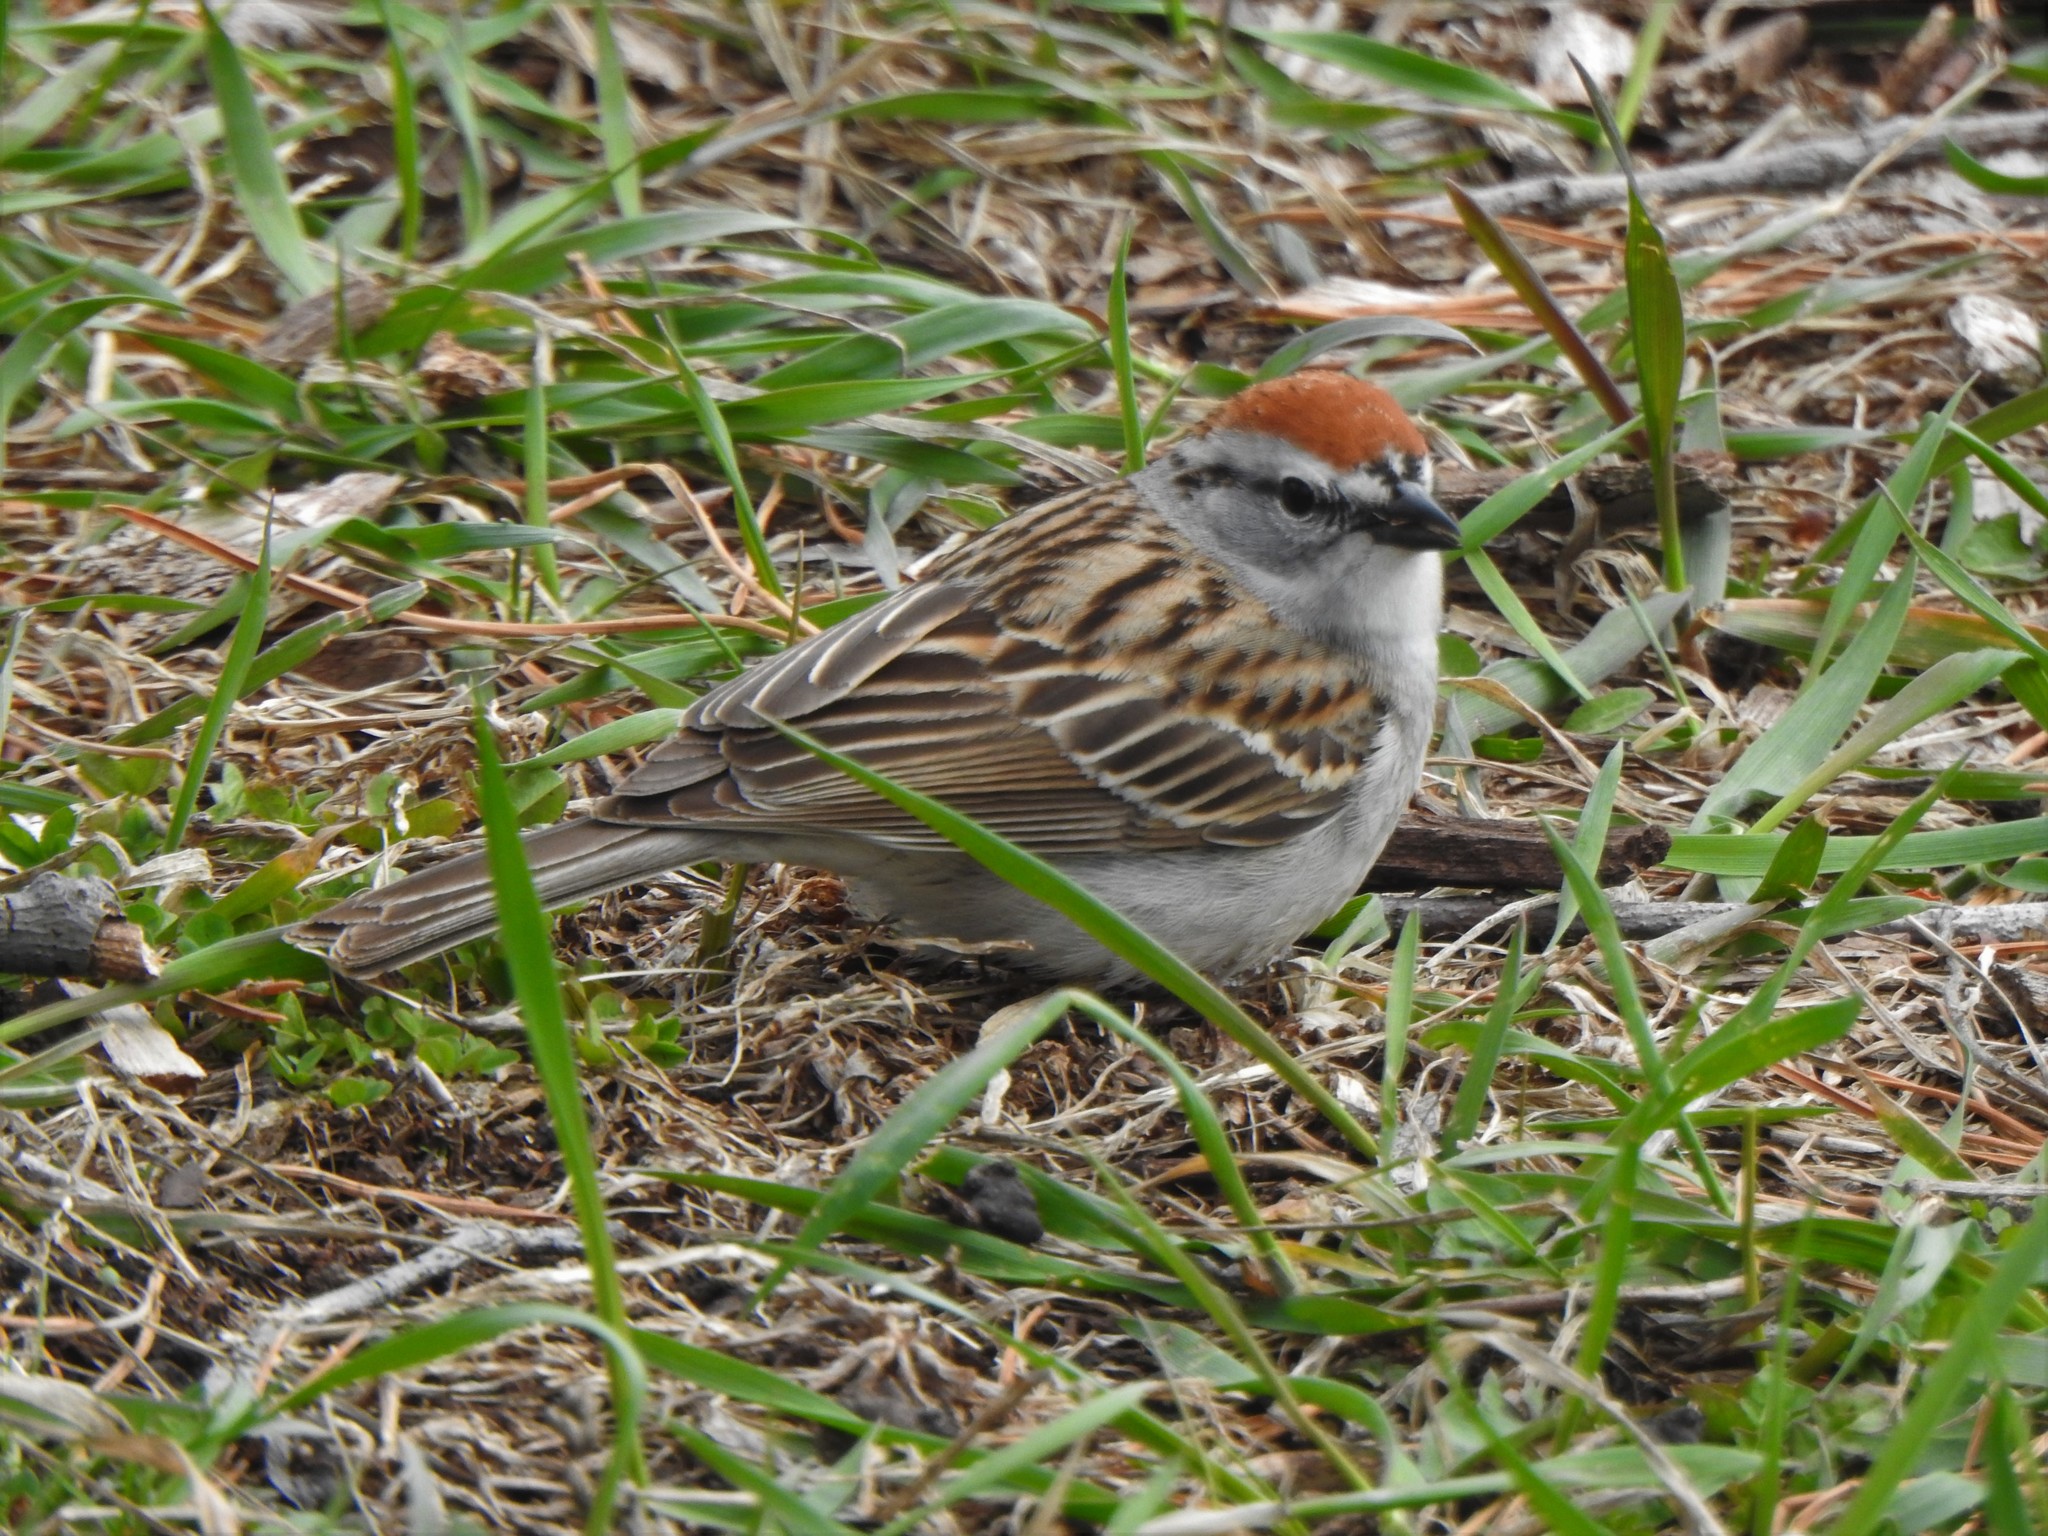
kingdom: Animalia
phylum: Chordata
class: Aves
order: Passeriformes
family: Passerellidae
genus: Spizella
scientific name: Spizella passerina
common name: Chipping sparrow
